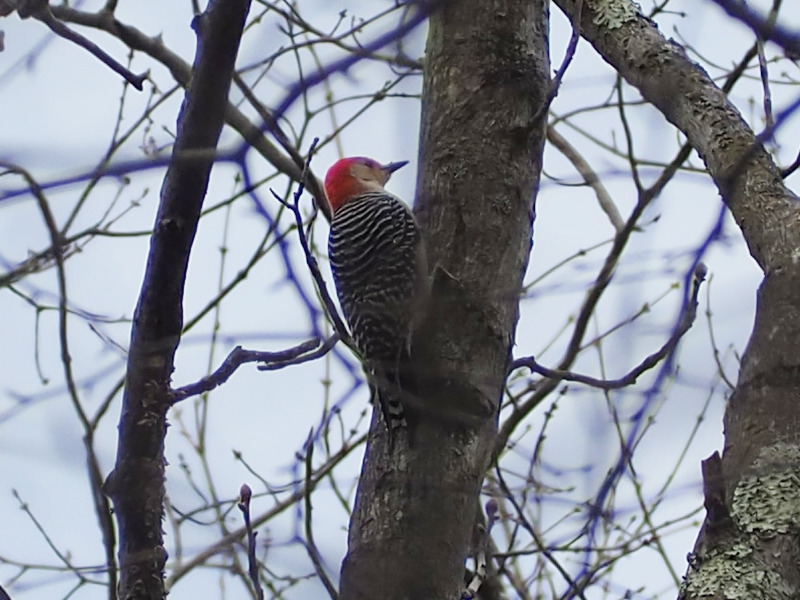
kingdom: Animalia
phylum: Chordata
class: Aves
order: Piciformes
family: Picidae
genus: Melanerpes
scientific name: Melanerpes carolinus
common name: Red-bellied woodpecker
